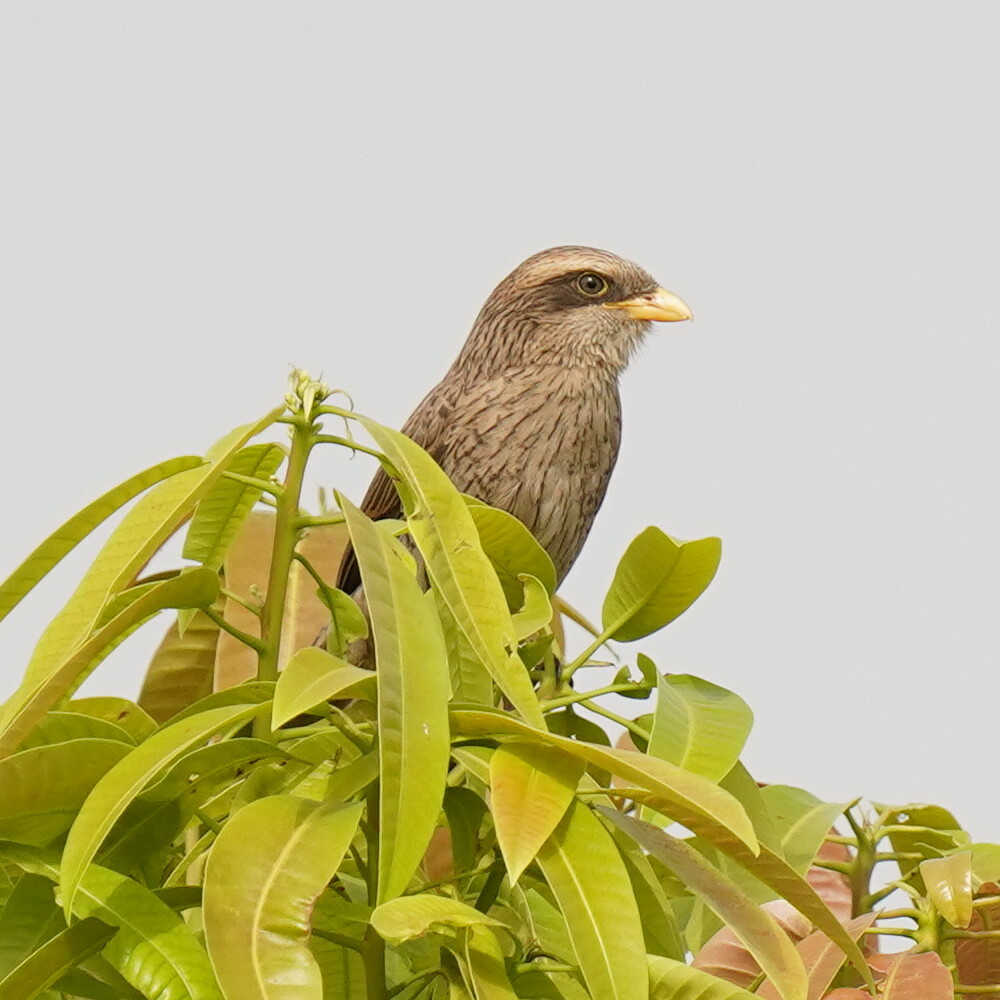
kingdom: Animalia
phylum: Chordata
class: Aves
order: Passeriformes
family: Laniidae
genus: Corvinella
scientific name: Corvinella corvina
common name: Yellow-billed shrike
